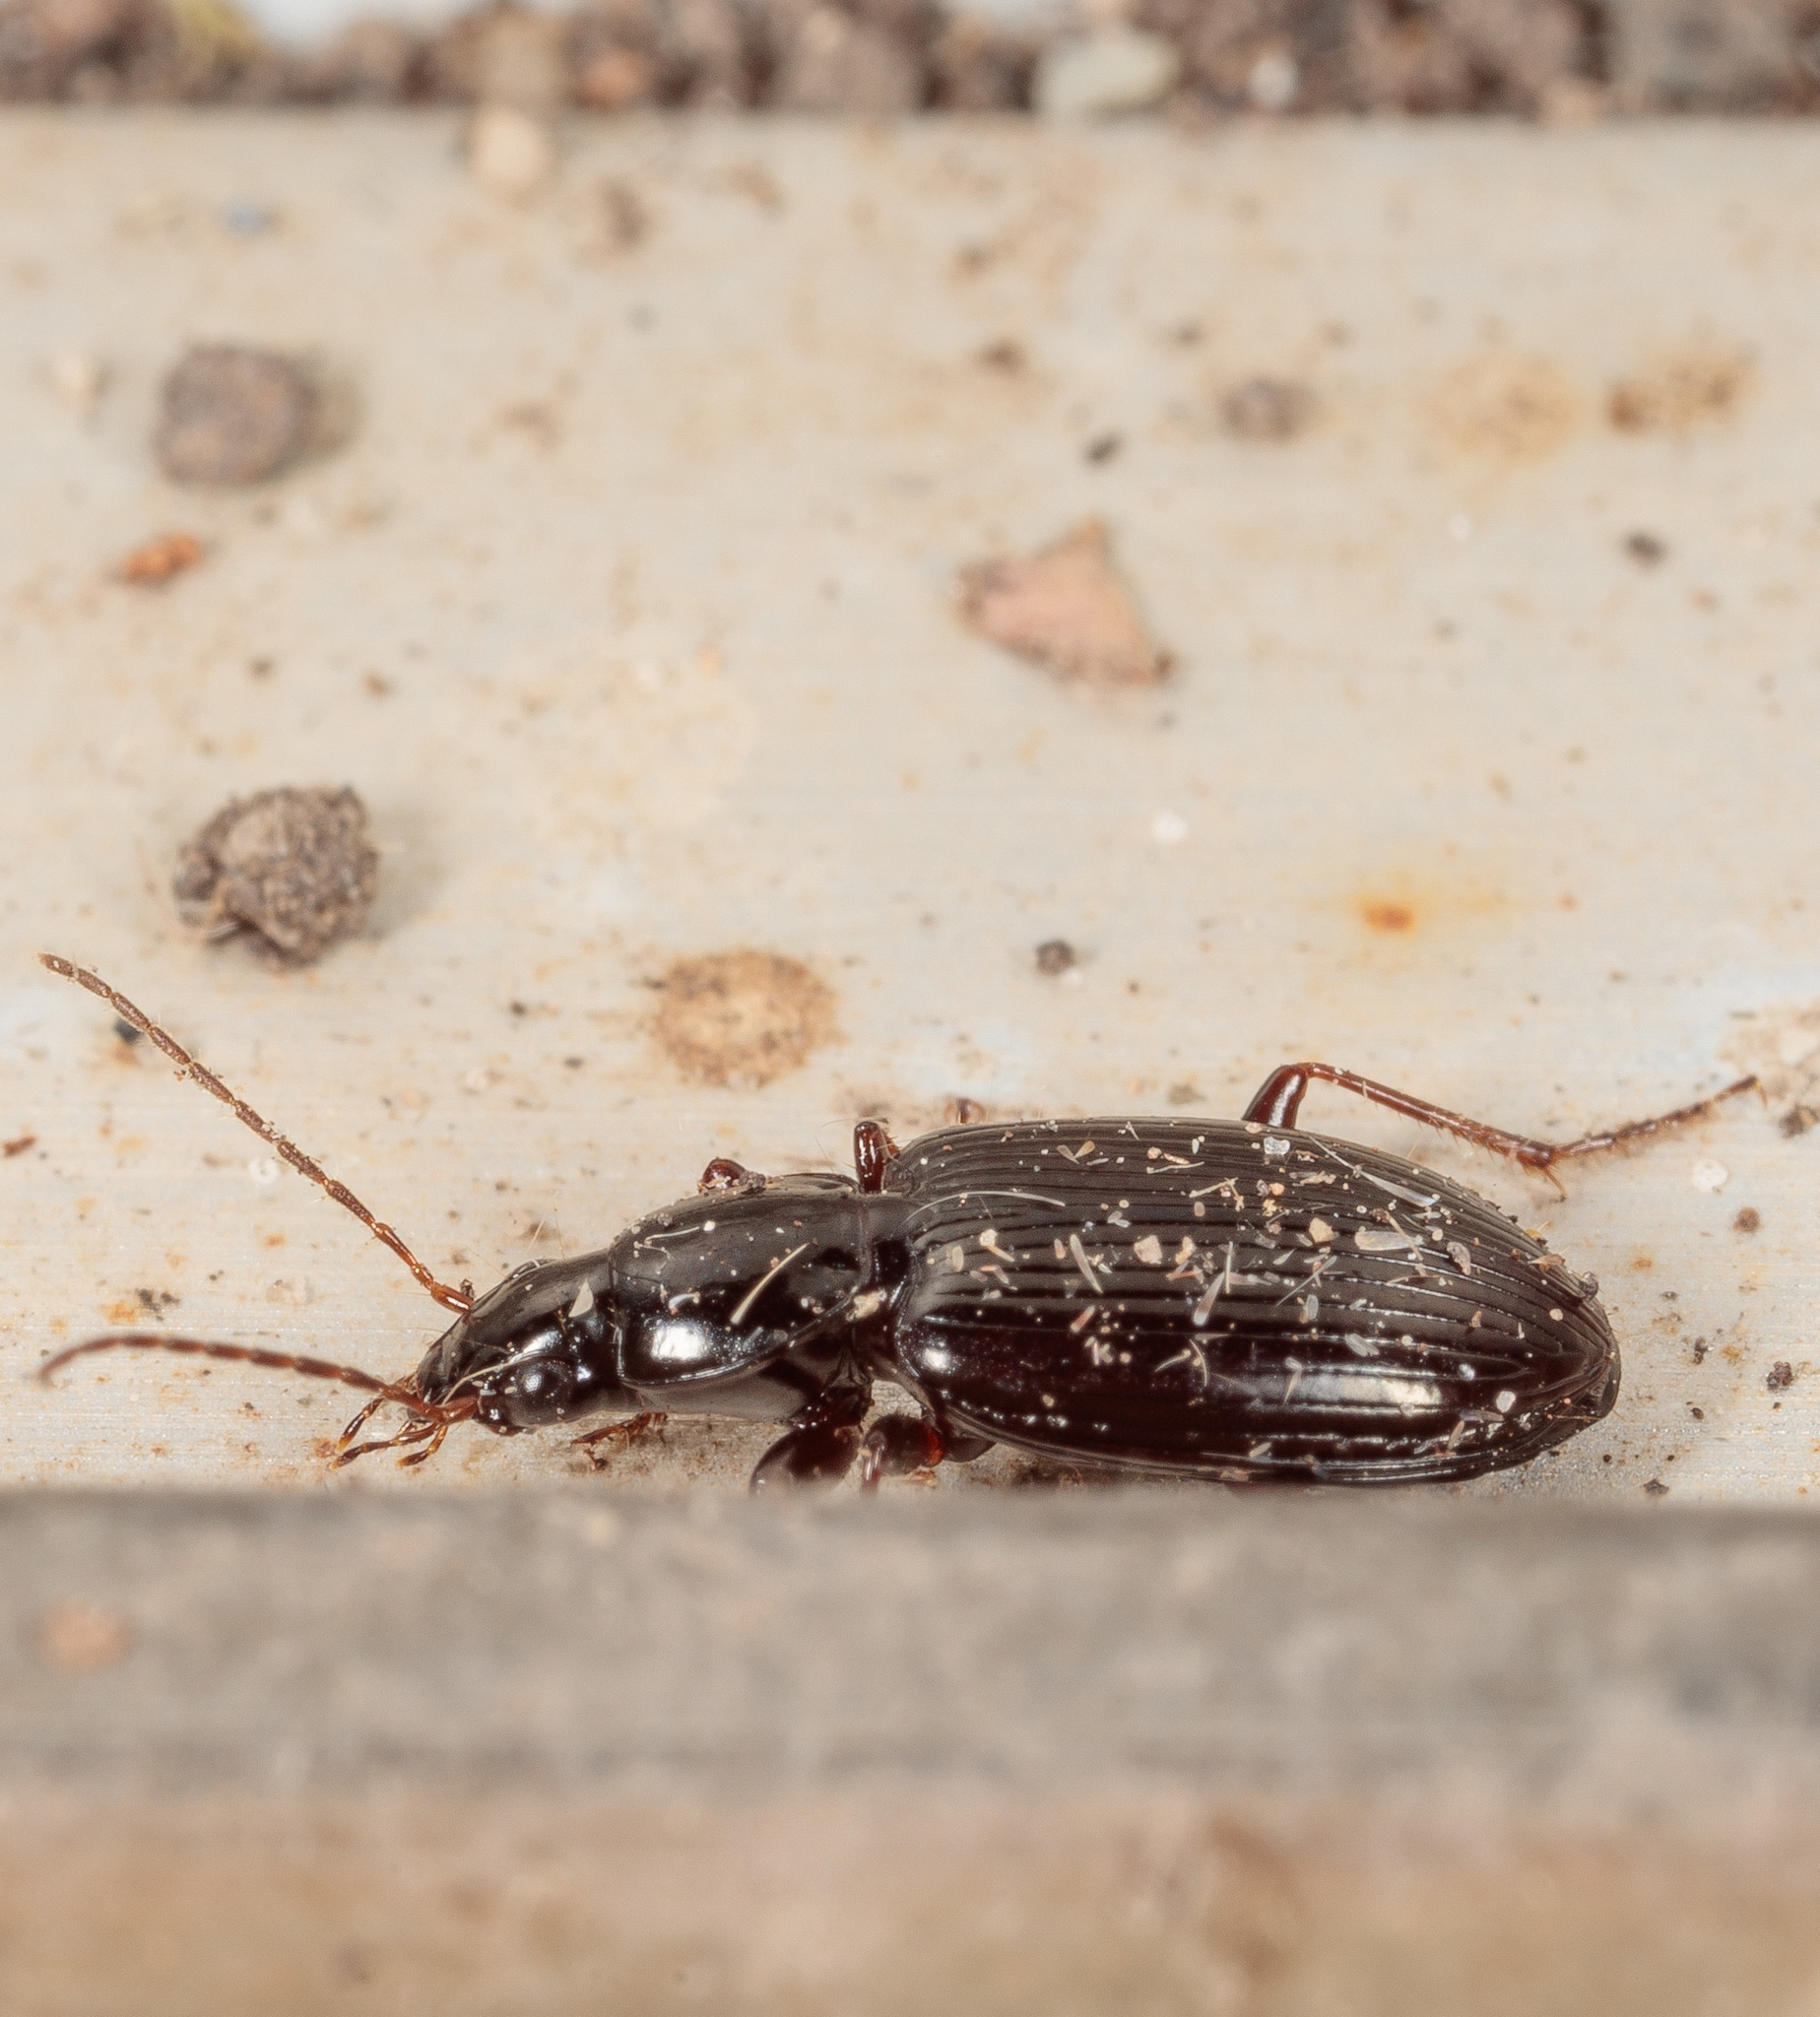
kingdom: Animalia
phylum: Arthropoda
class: Insecta
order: Coleoptera
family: Carabidae
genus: Agonum
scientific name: Agonum punctiforme
